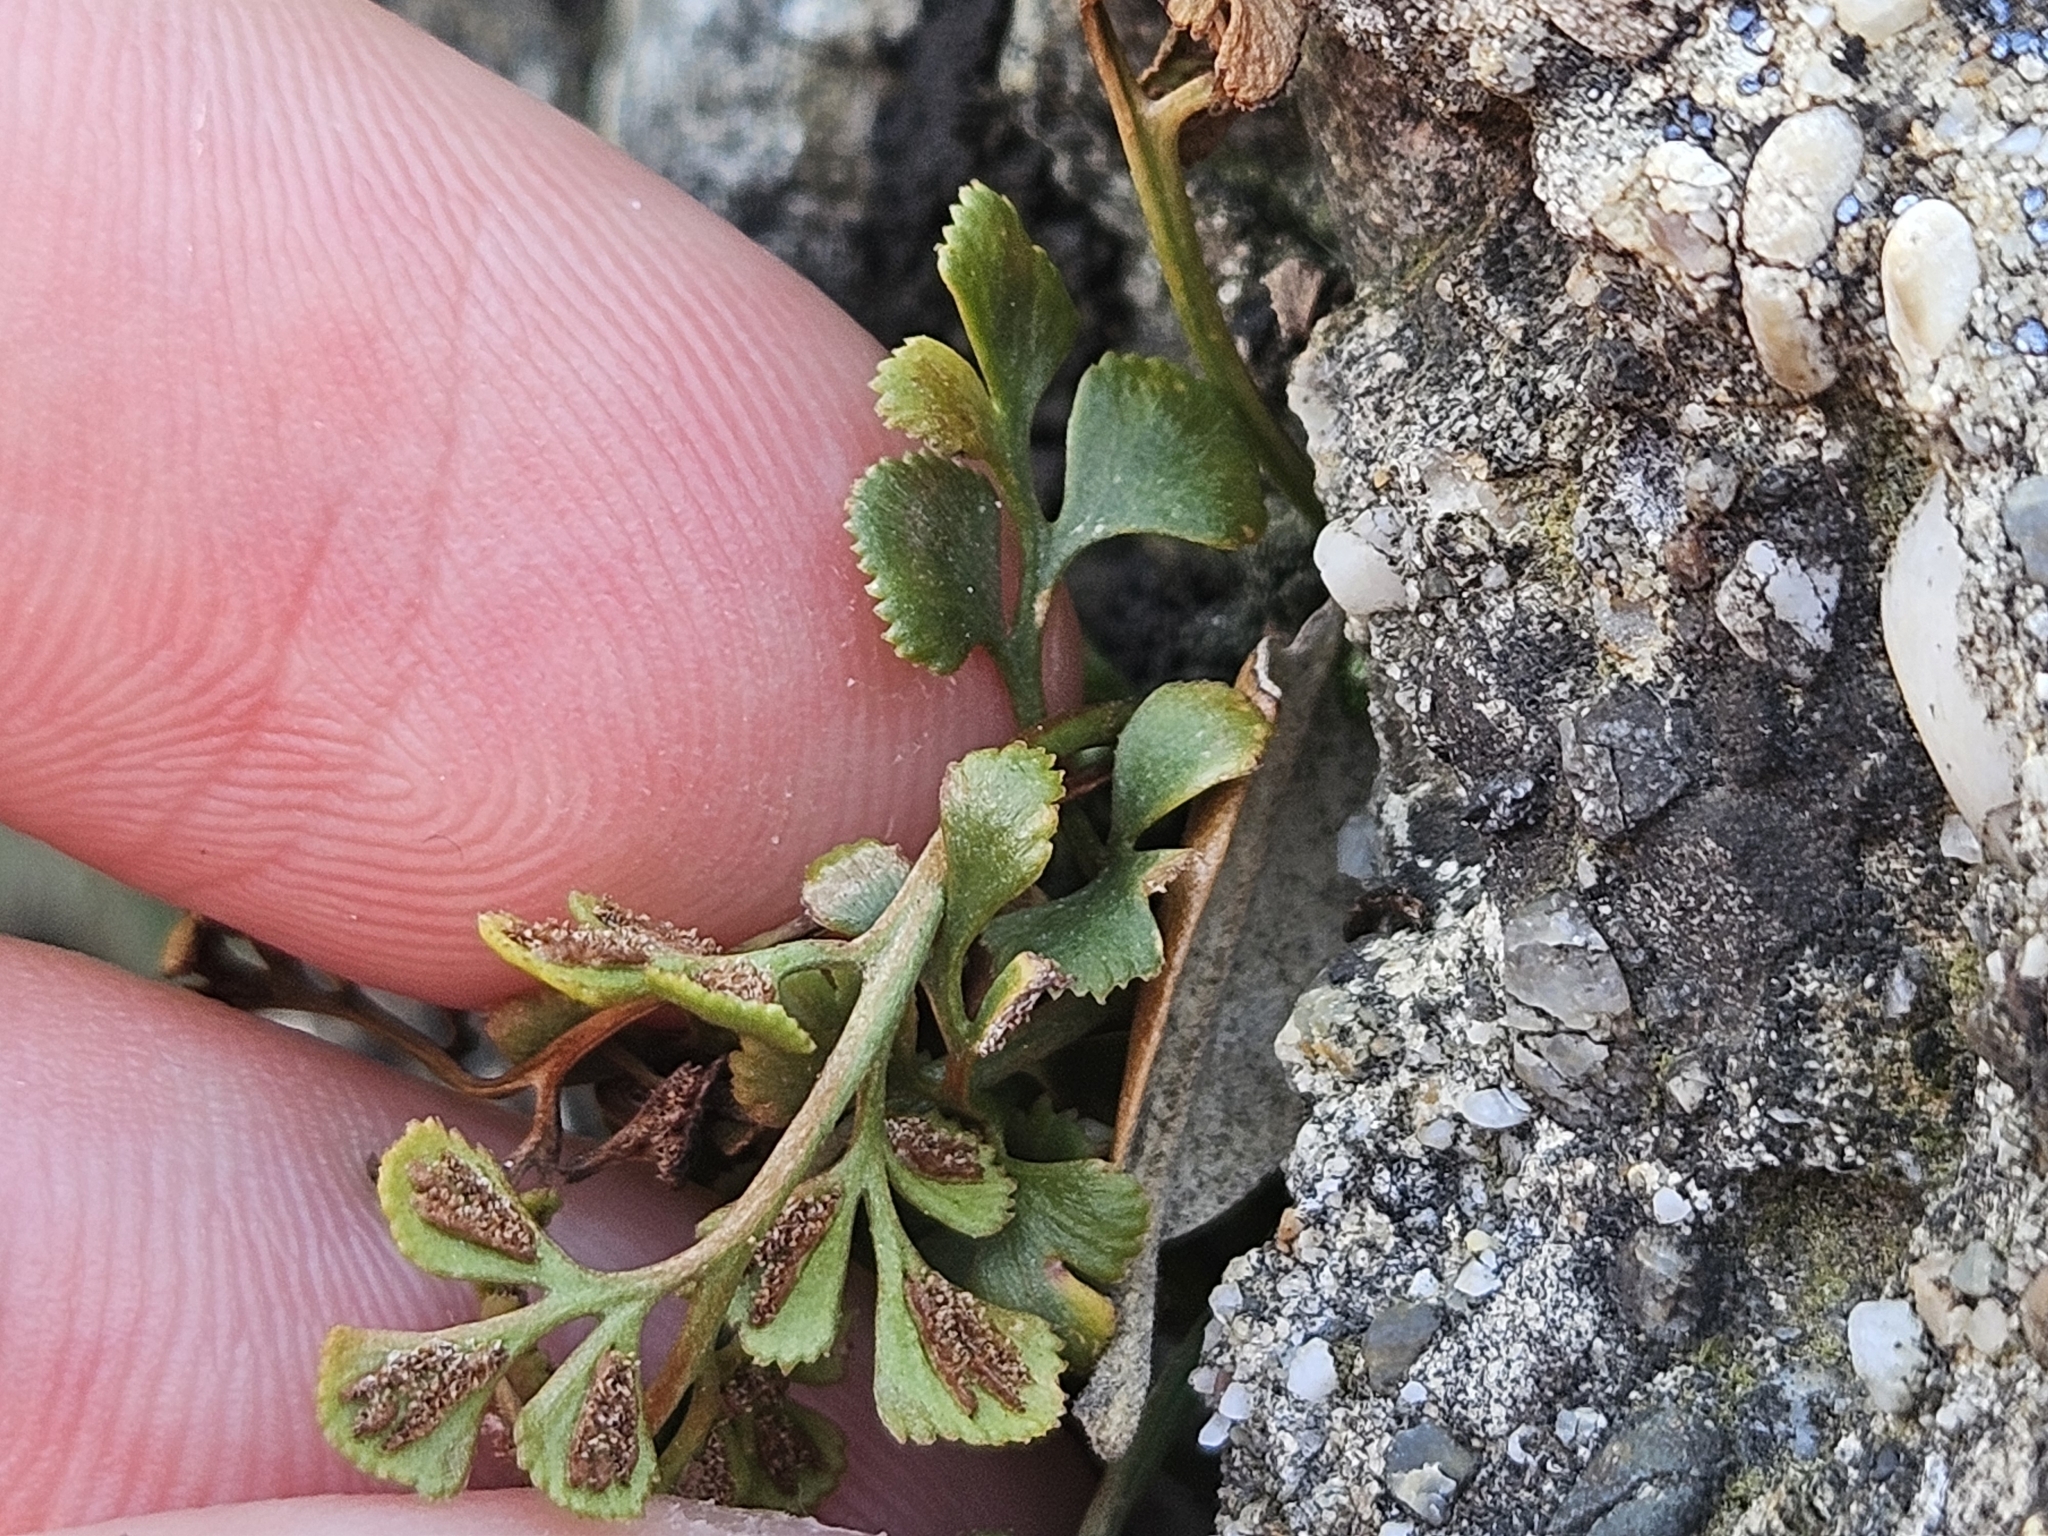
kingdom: Plantae
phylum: Tracheophyta
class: Polypodiopsida
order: Polypodiales
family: Aspleniaceae
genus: Asplenium
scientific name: Asplenium ruta-muraria
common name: Wall-rue
